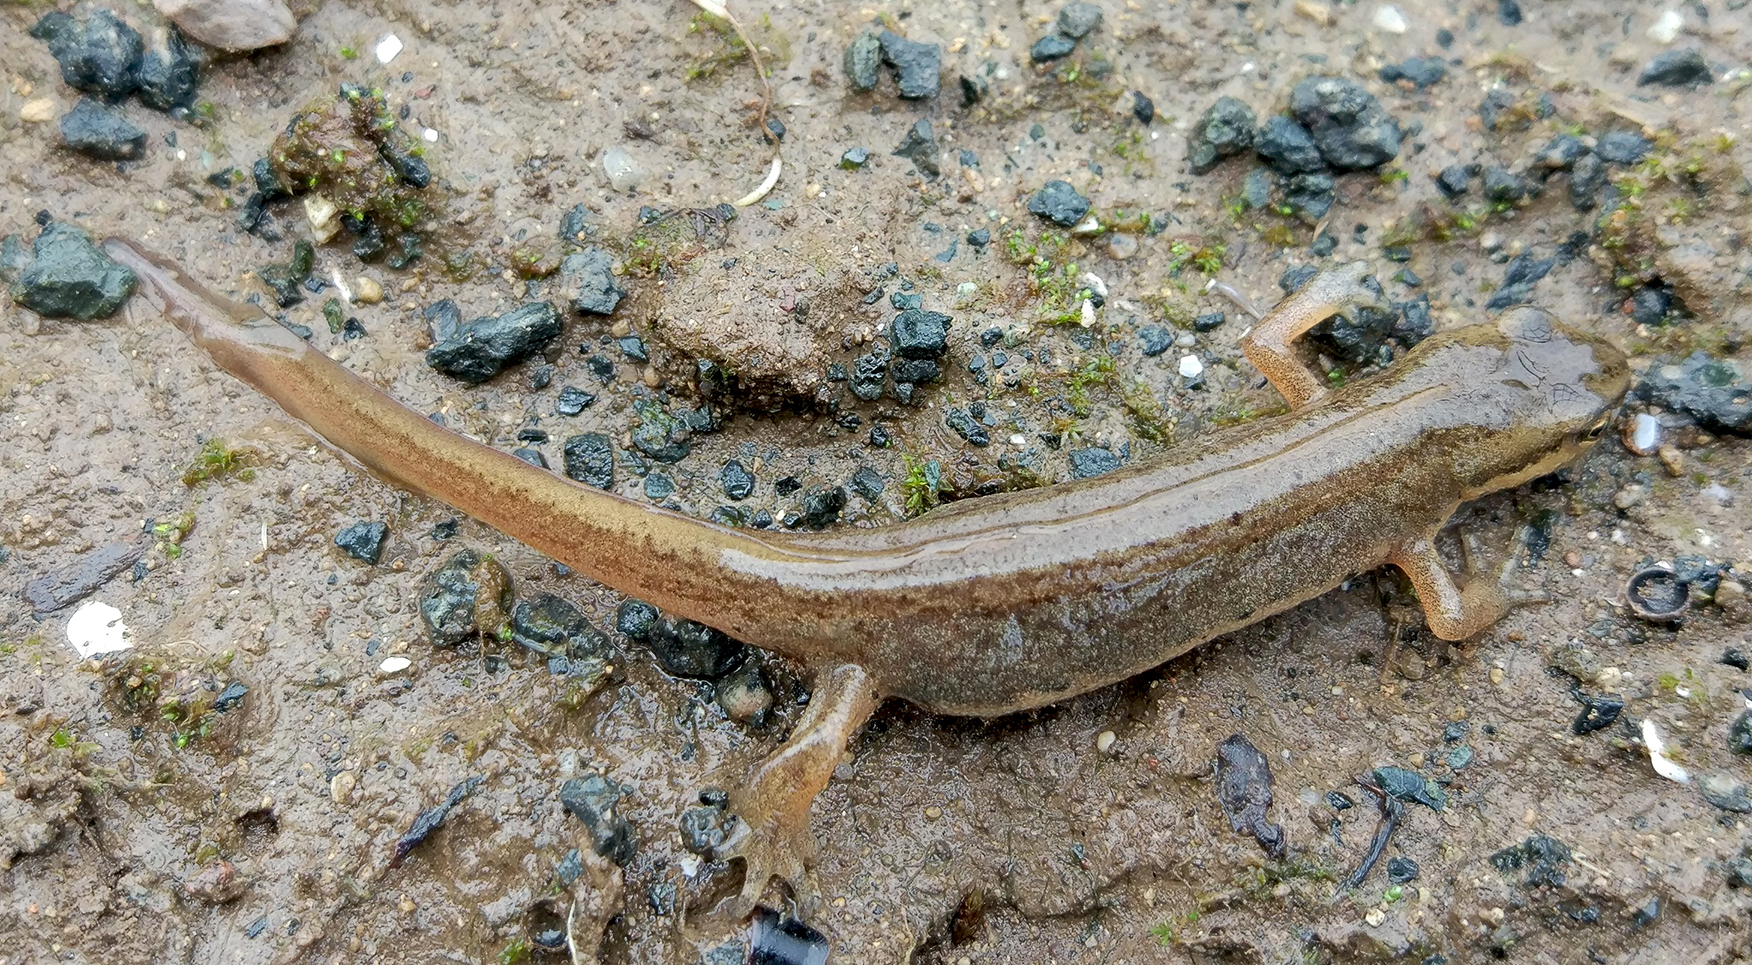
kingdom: Animalia
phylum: Chordata
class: Amphibia
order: Caudata
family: Salamandridae
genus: Lissotriton
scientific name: Lissotriton schmidtleri
